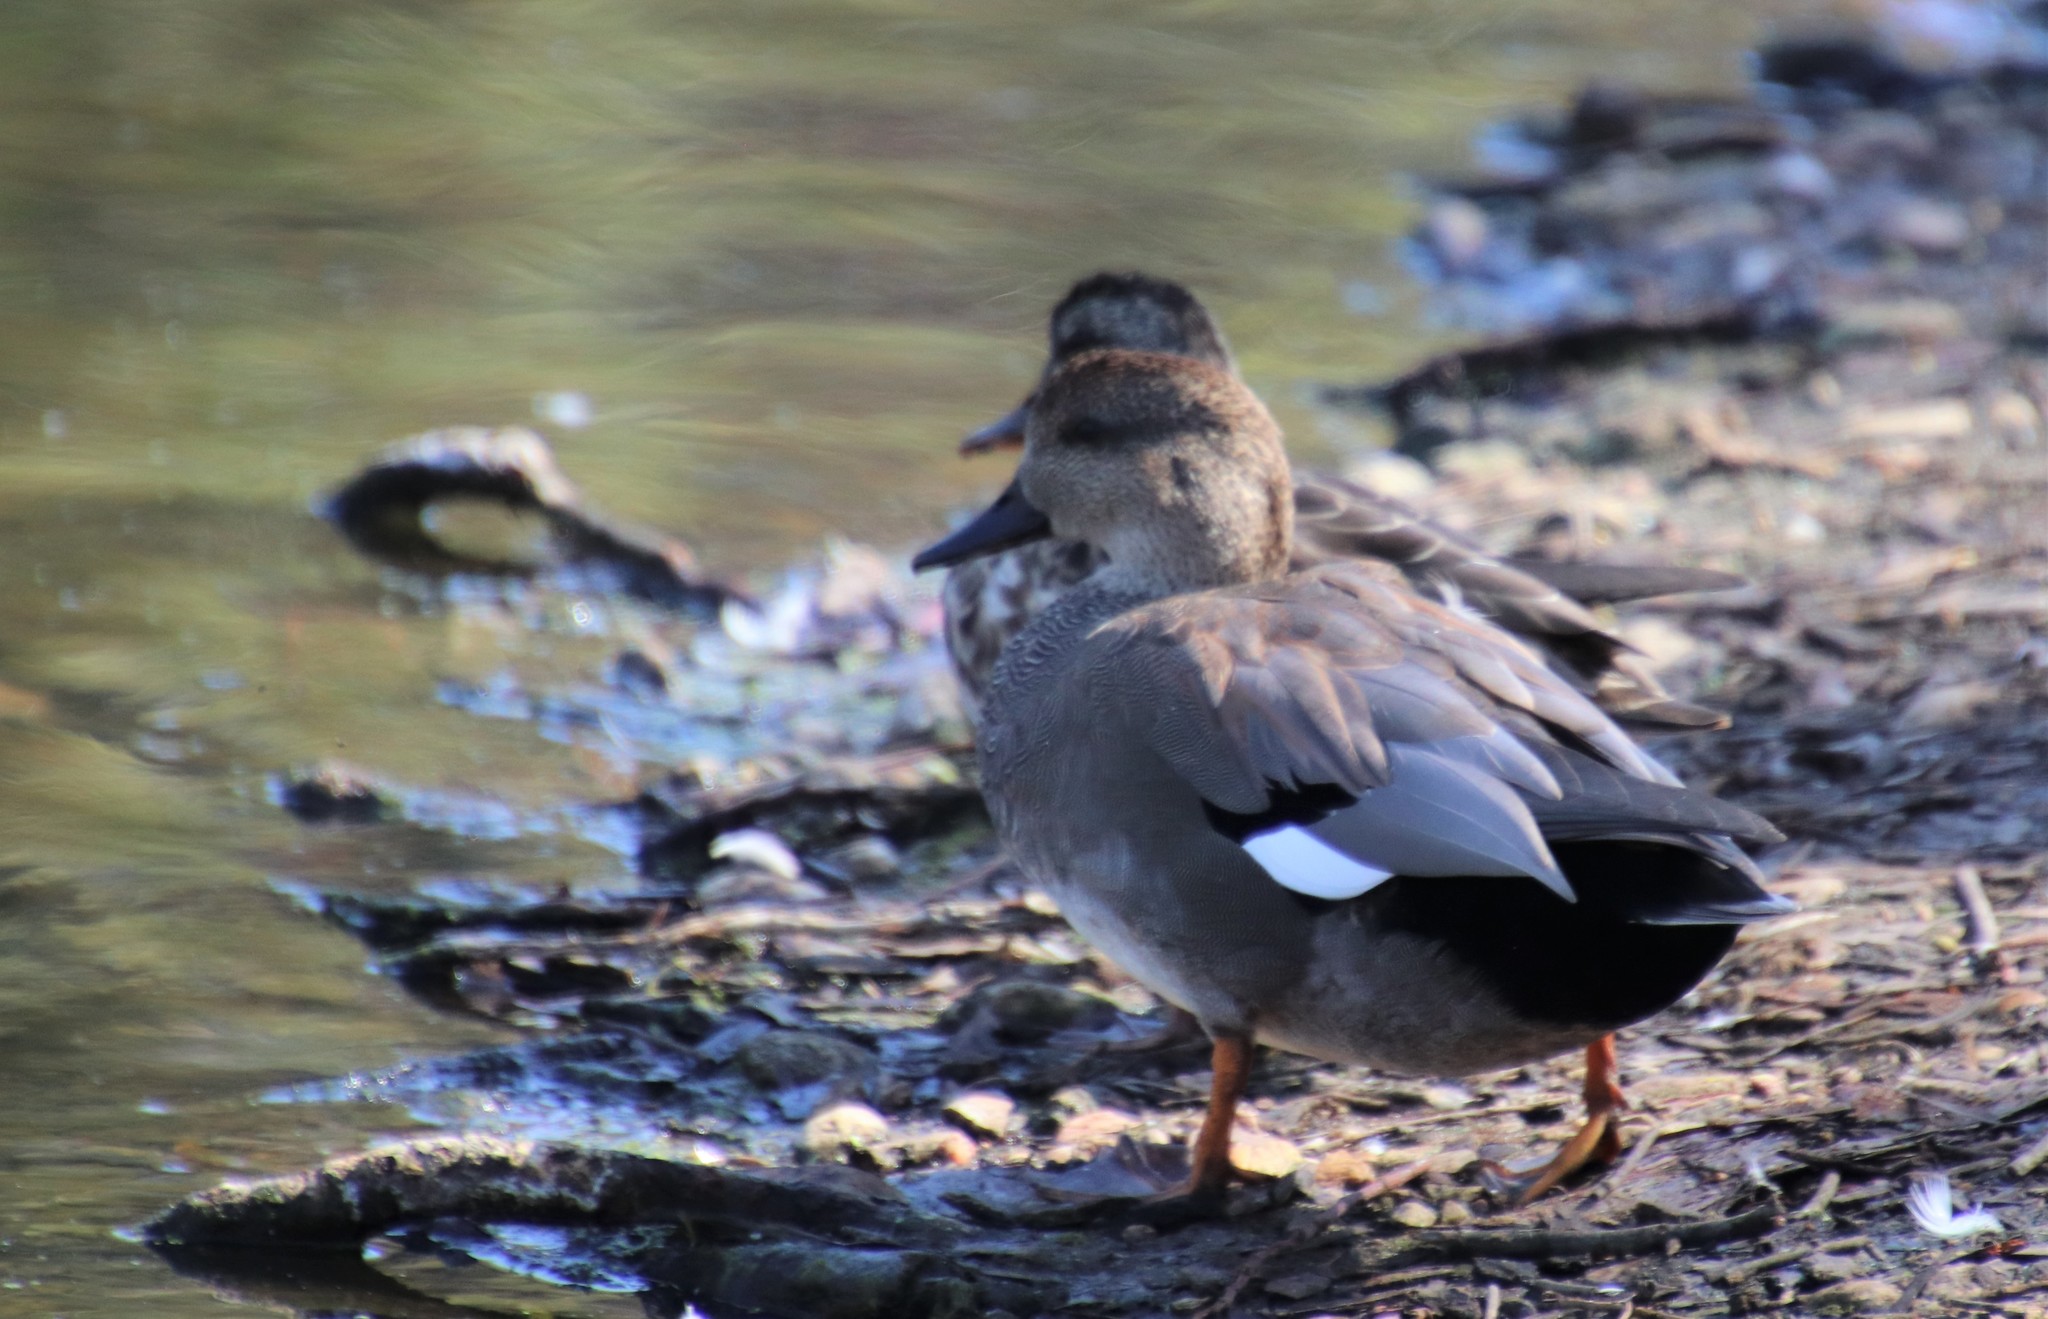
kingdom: Animalia
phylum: Chordata
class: Aves
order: Anseriformes
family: Anatidae
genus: Mareca
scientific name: Mareca strepera
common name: Gadwall
